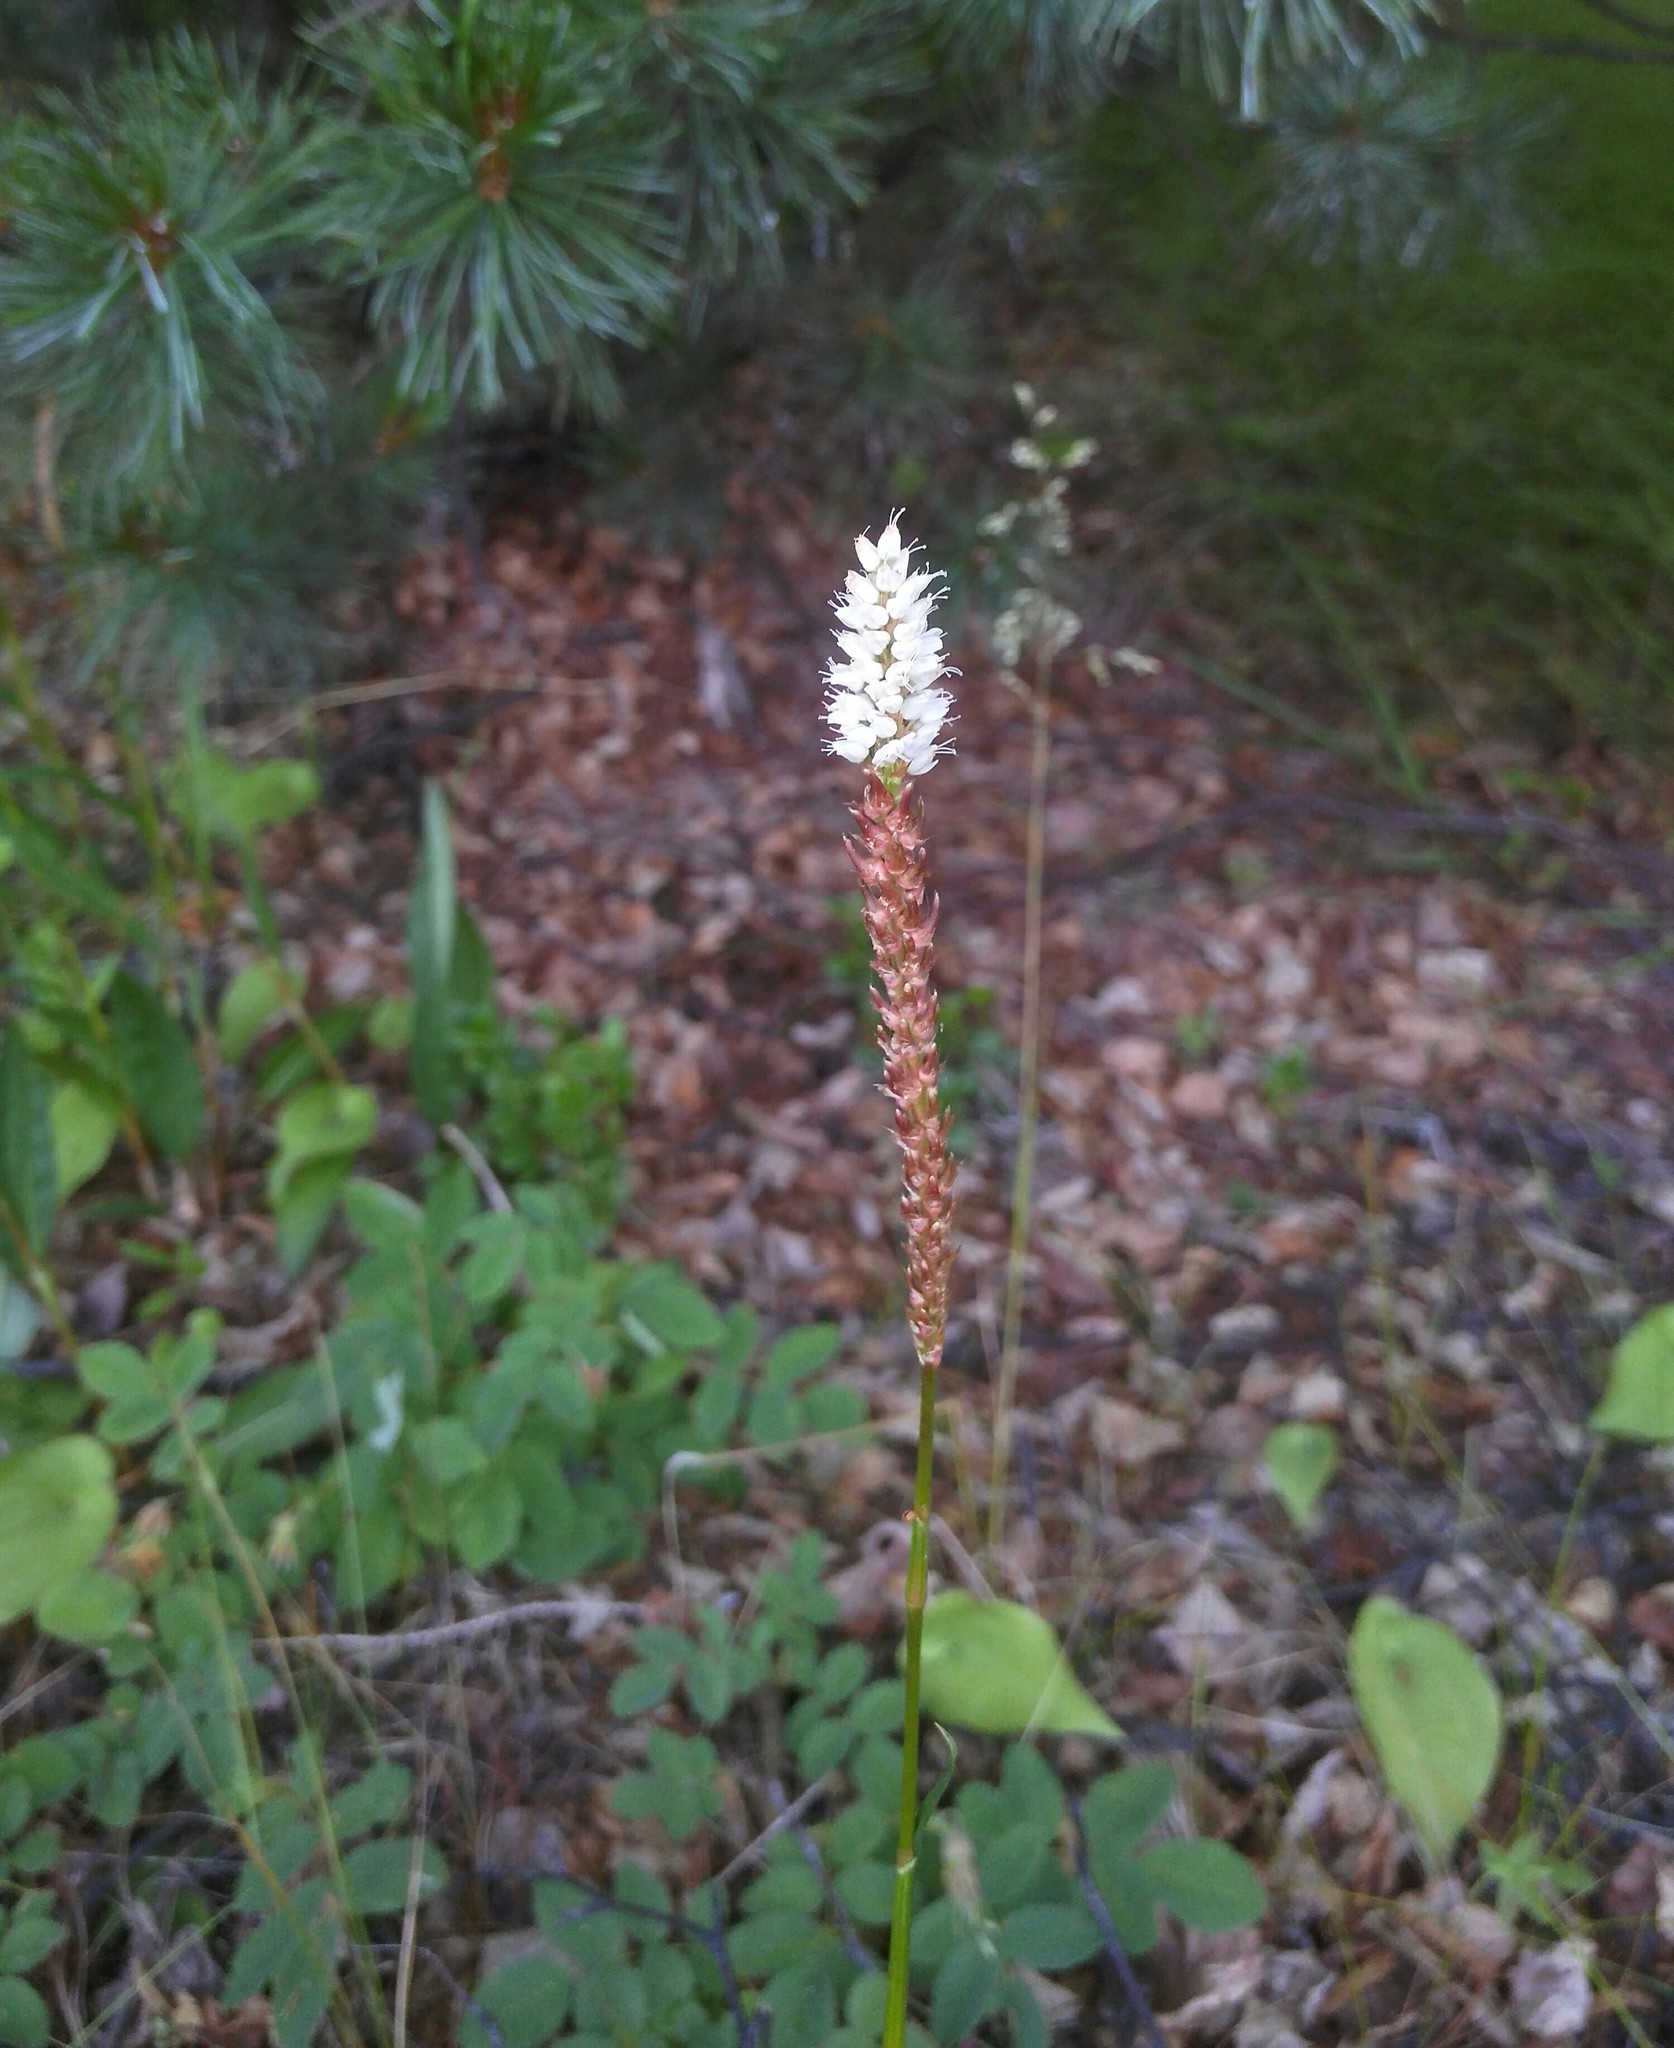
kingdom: Plantae
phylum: Tracheophyta
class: Magnoliopsida
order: Caryophyllales
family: Polygonaceae
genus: Bistorta
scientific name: Bistorta vivipara
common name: Alpine bistort
